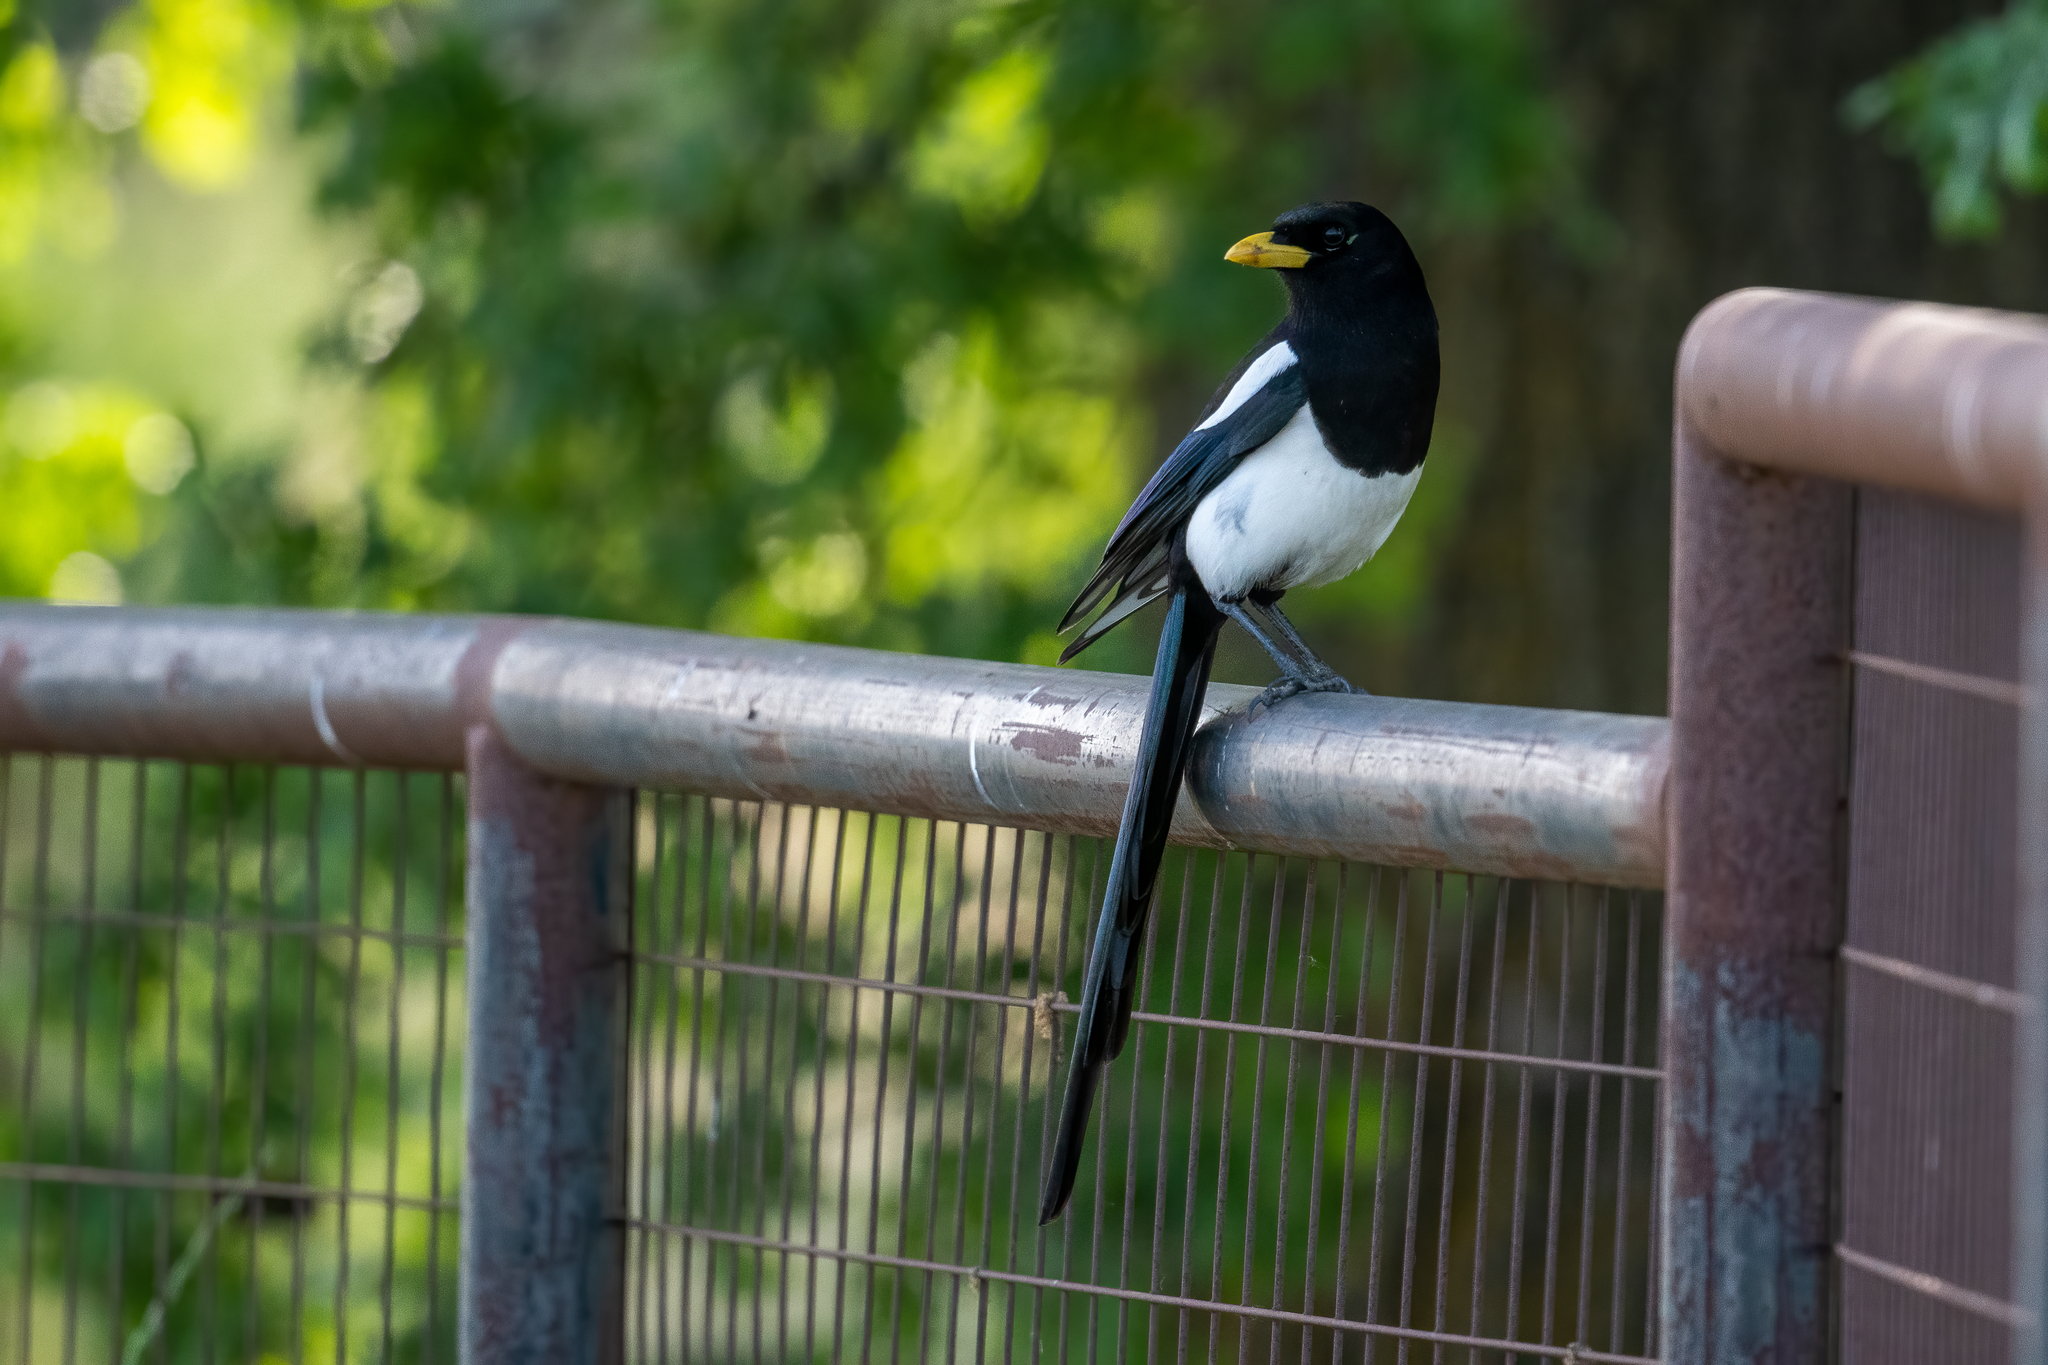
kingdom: Animalia
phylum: Chordata
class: Aves
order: Passeriformes
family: Corvidae
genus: Pica
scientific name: Pica nuttalli
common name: Yellow-billed magpie
